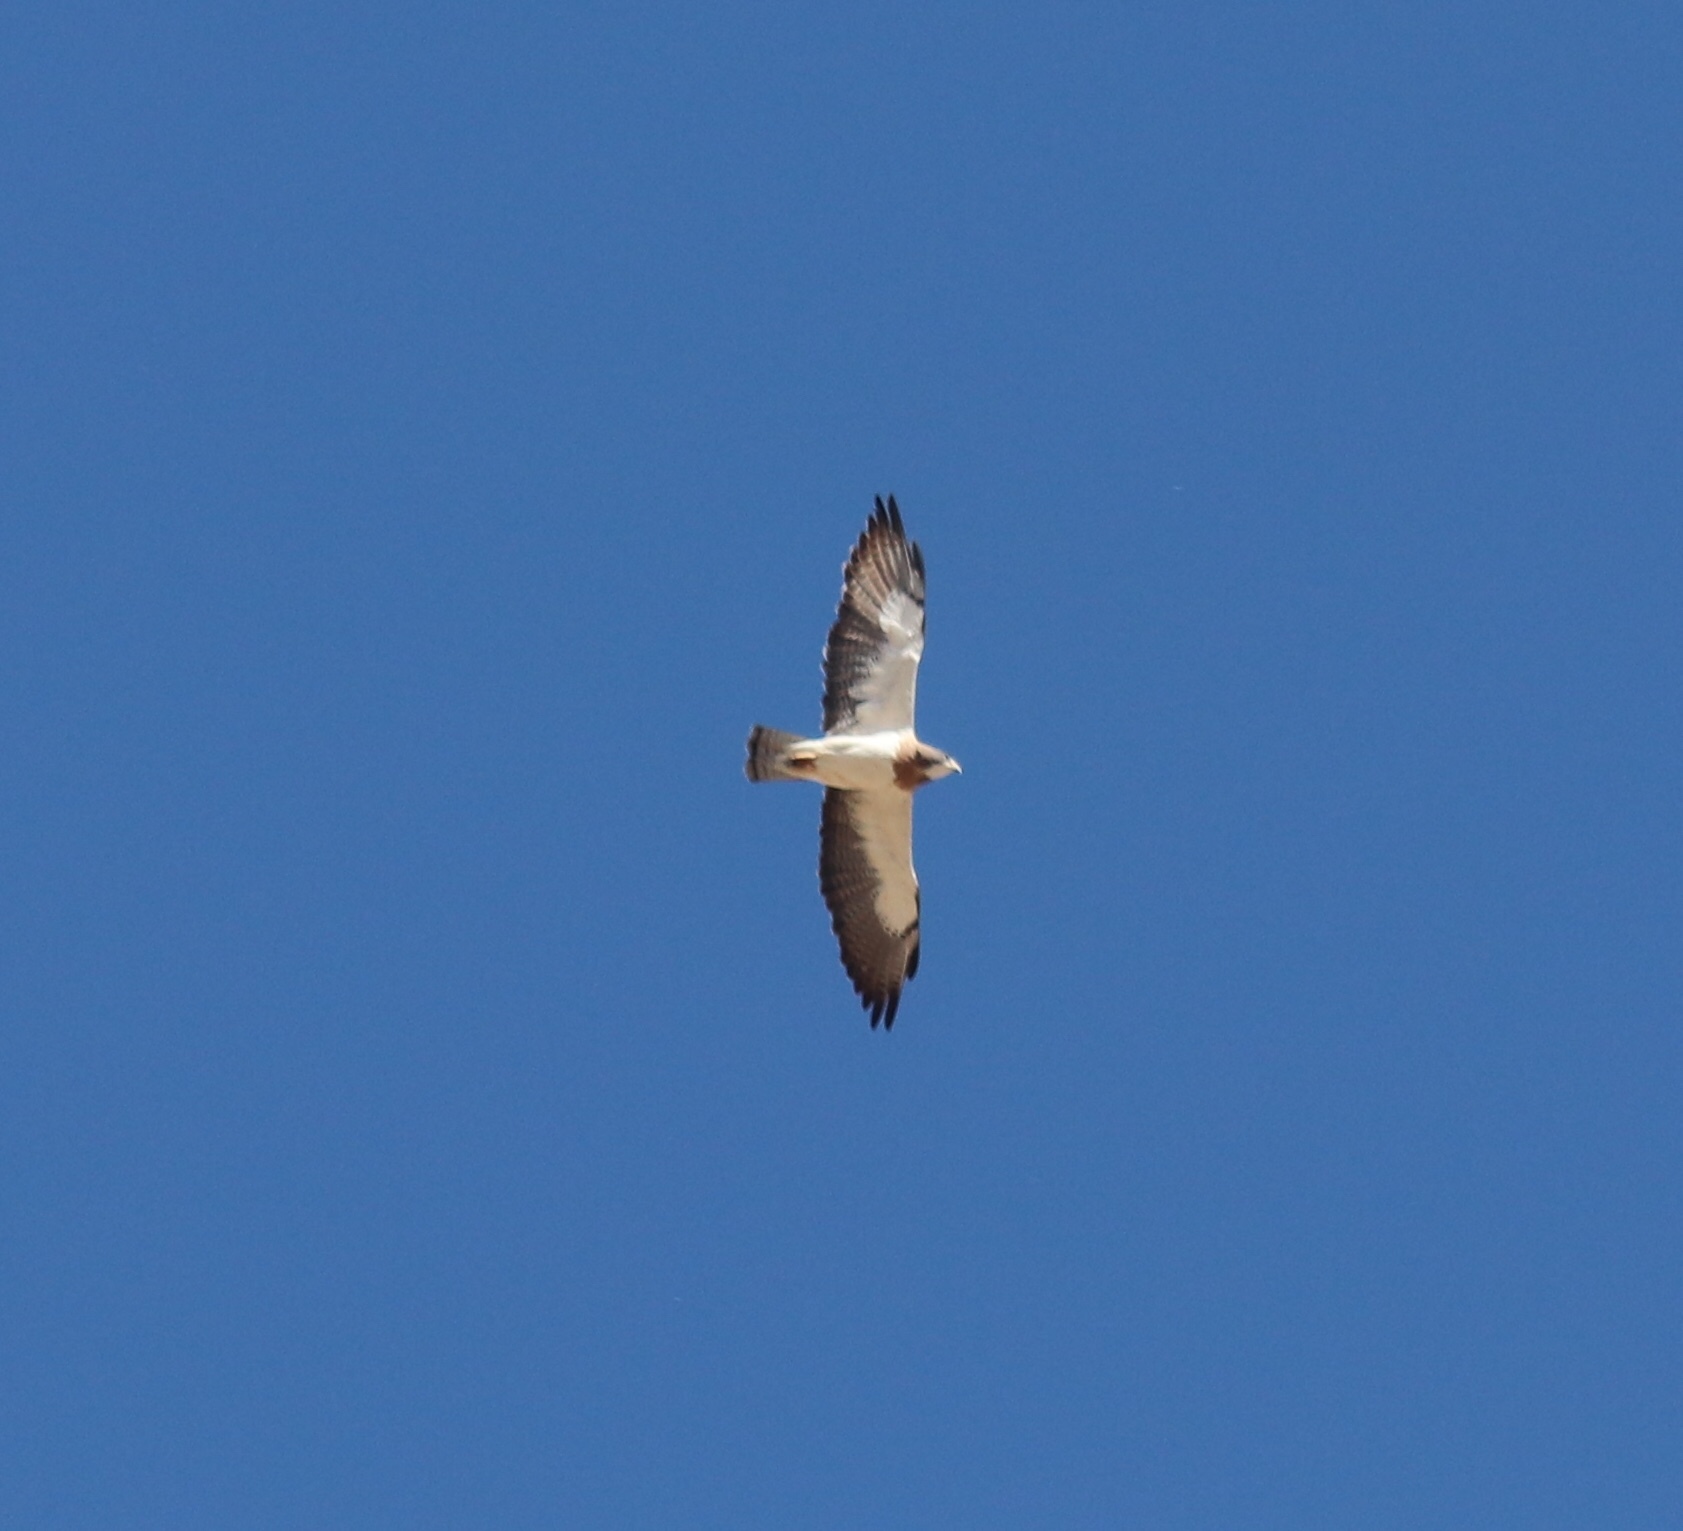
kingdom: Animalia
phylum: Chordata
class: Aves
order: Accipitriformes
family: Accipitridae
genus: Buteo
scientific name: Buteo swainsoni
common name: Swainson's hawk
